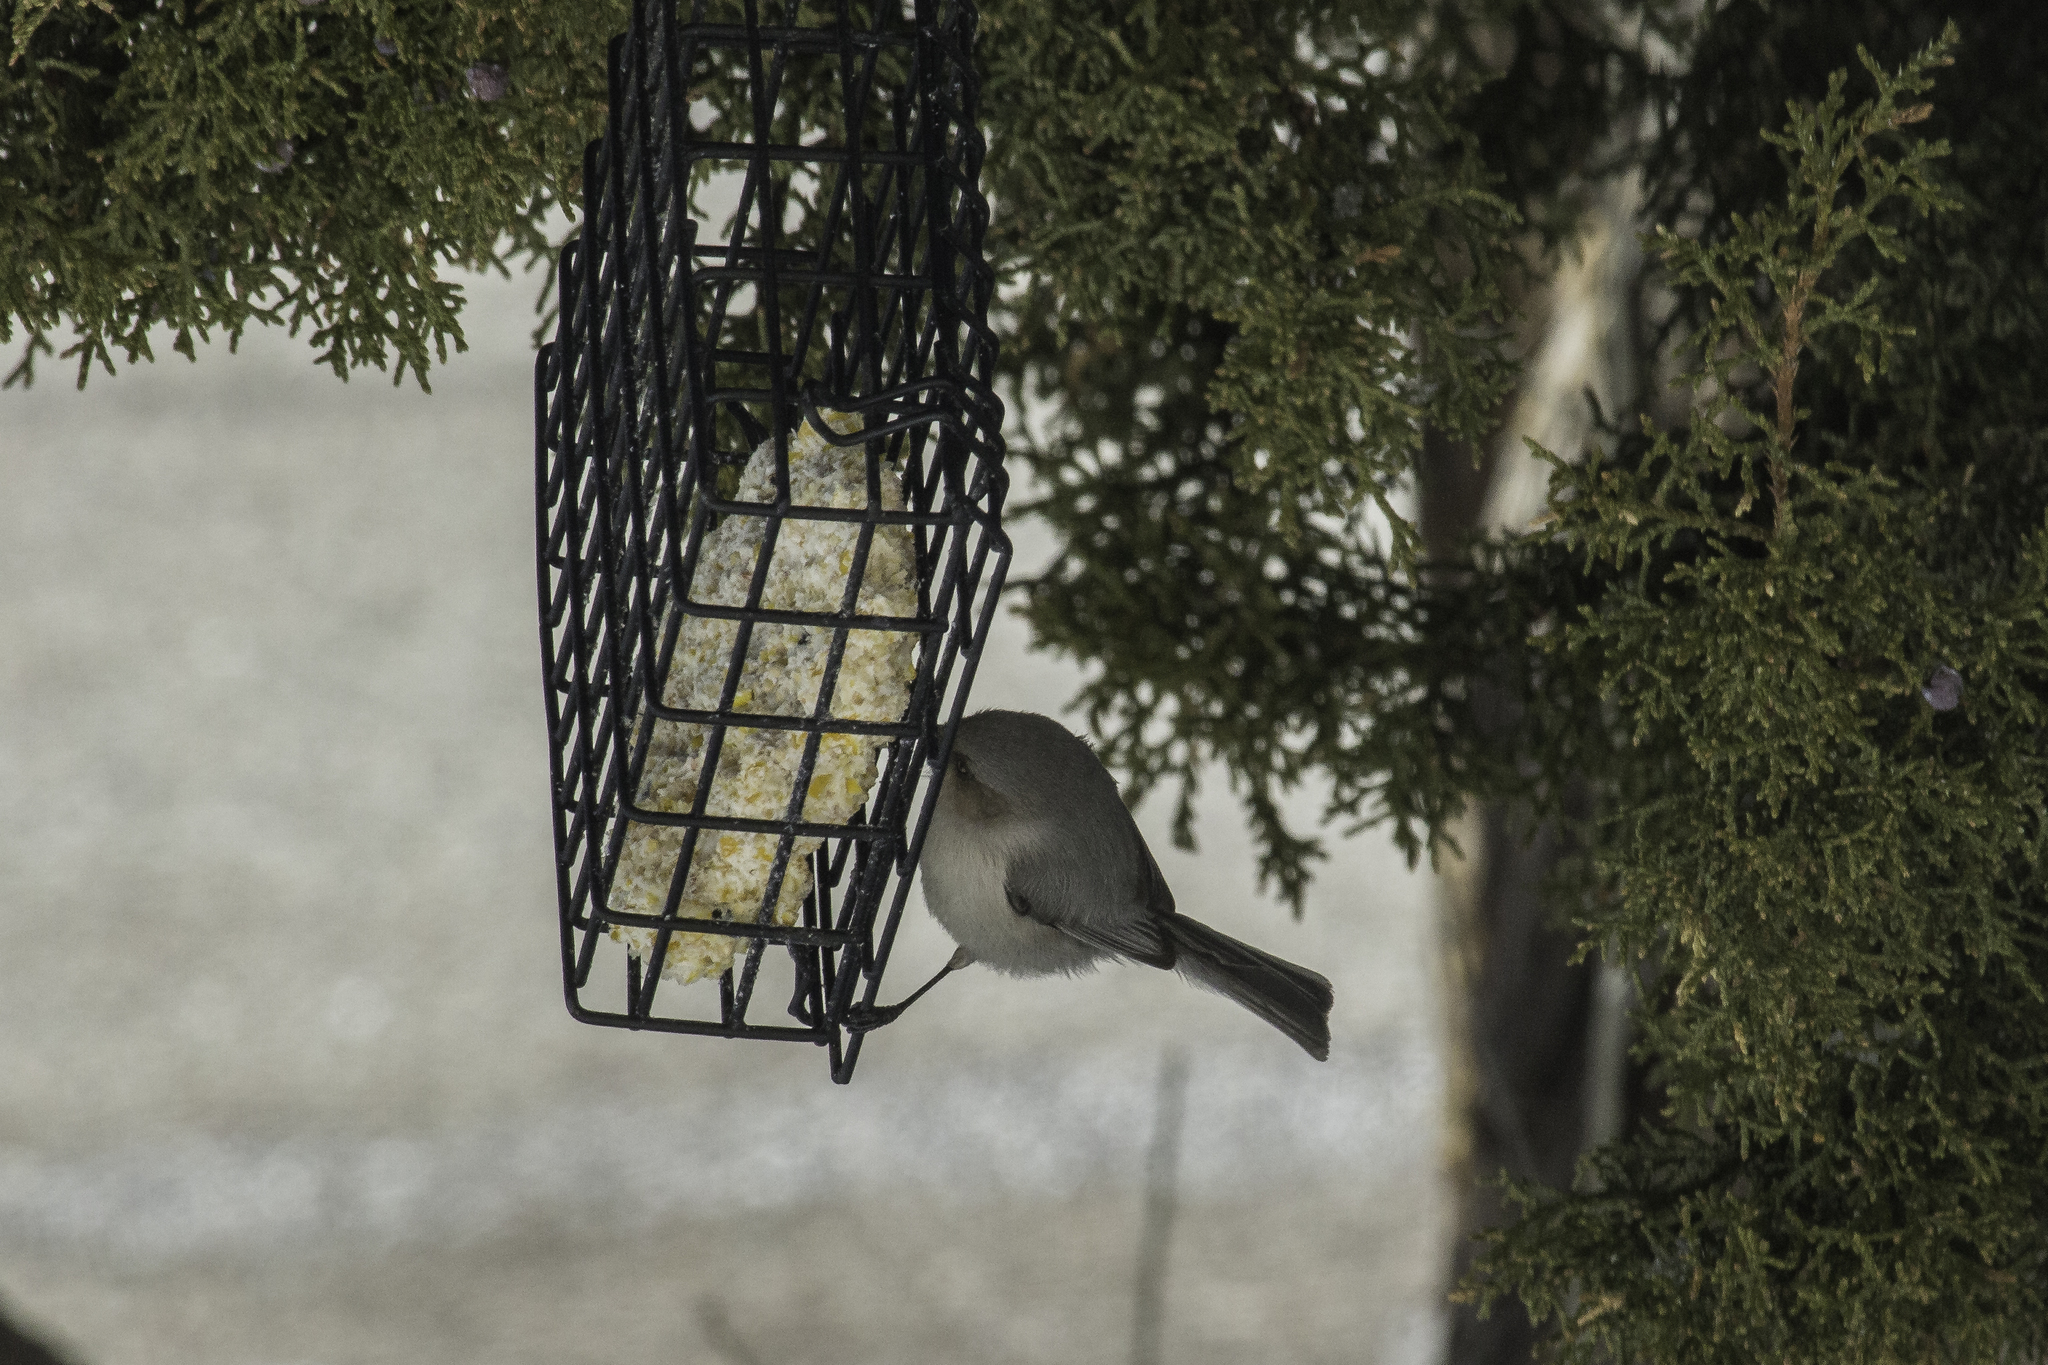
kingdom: Animalia
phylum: Chordata
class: Aves
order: Passeriformes
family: Aegithalidae
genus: Psaltriparus
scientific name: Psaltriparus minimus
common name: American bushtit
